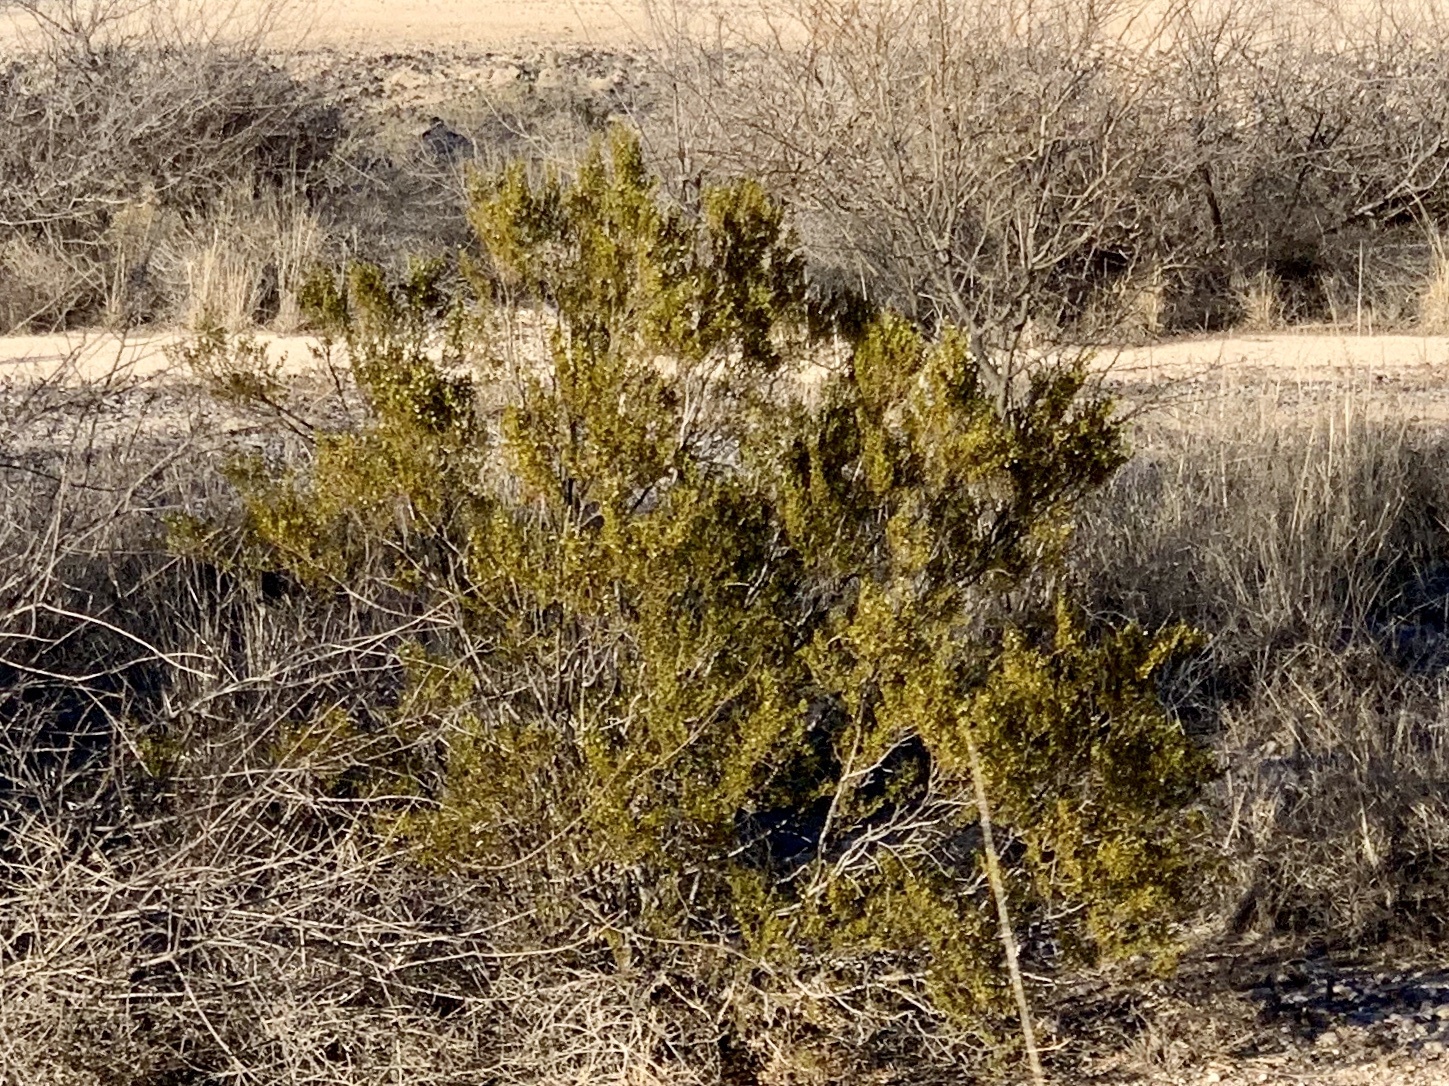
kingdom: Plantae
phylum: Tracheophyta
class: Magnoliopsida
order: Zygophyllales
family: Zygophyllaceae
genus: Larrea
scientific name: Larrea tridentata
